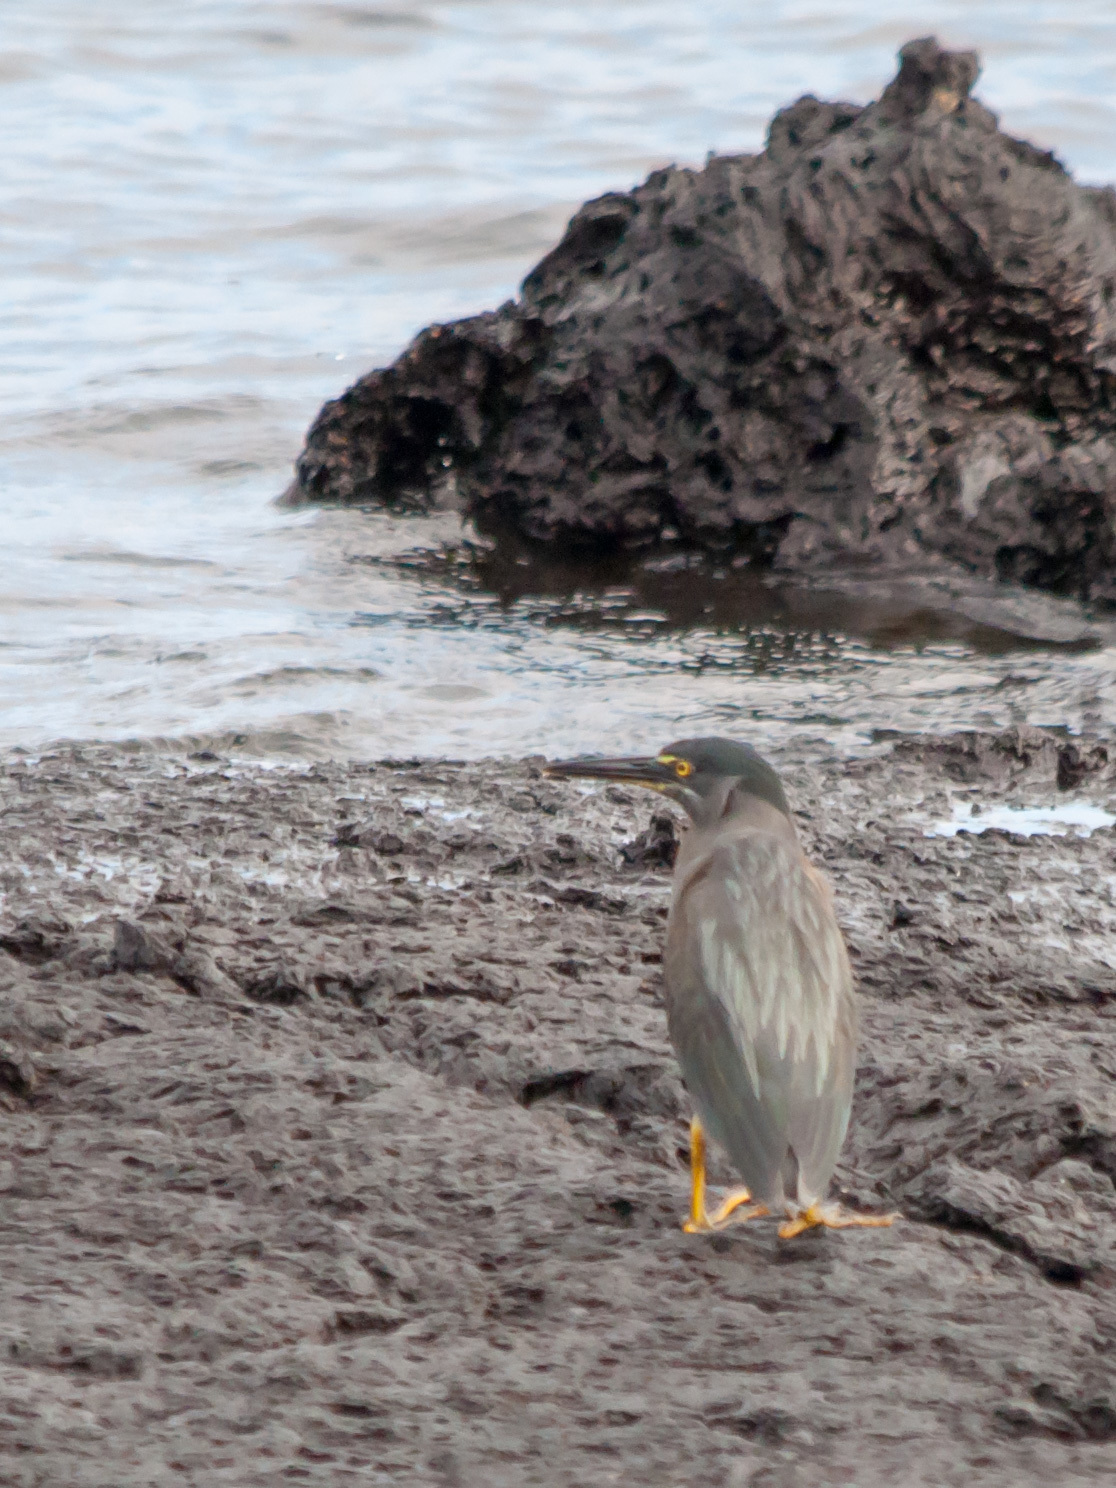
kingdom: Animalia
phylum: Chordata
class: Aves
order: Pelecaniformes
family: Ardeidae
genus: Butorides
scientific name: Butorides striata
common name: Striated heron
